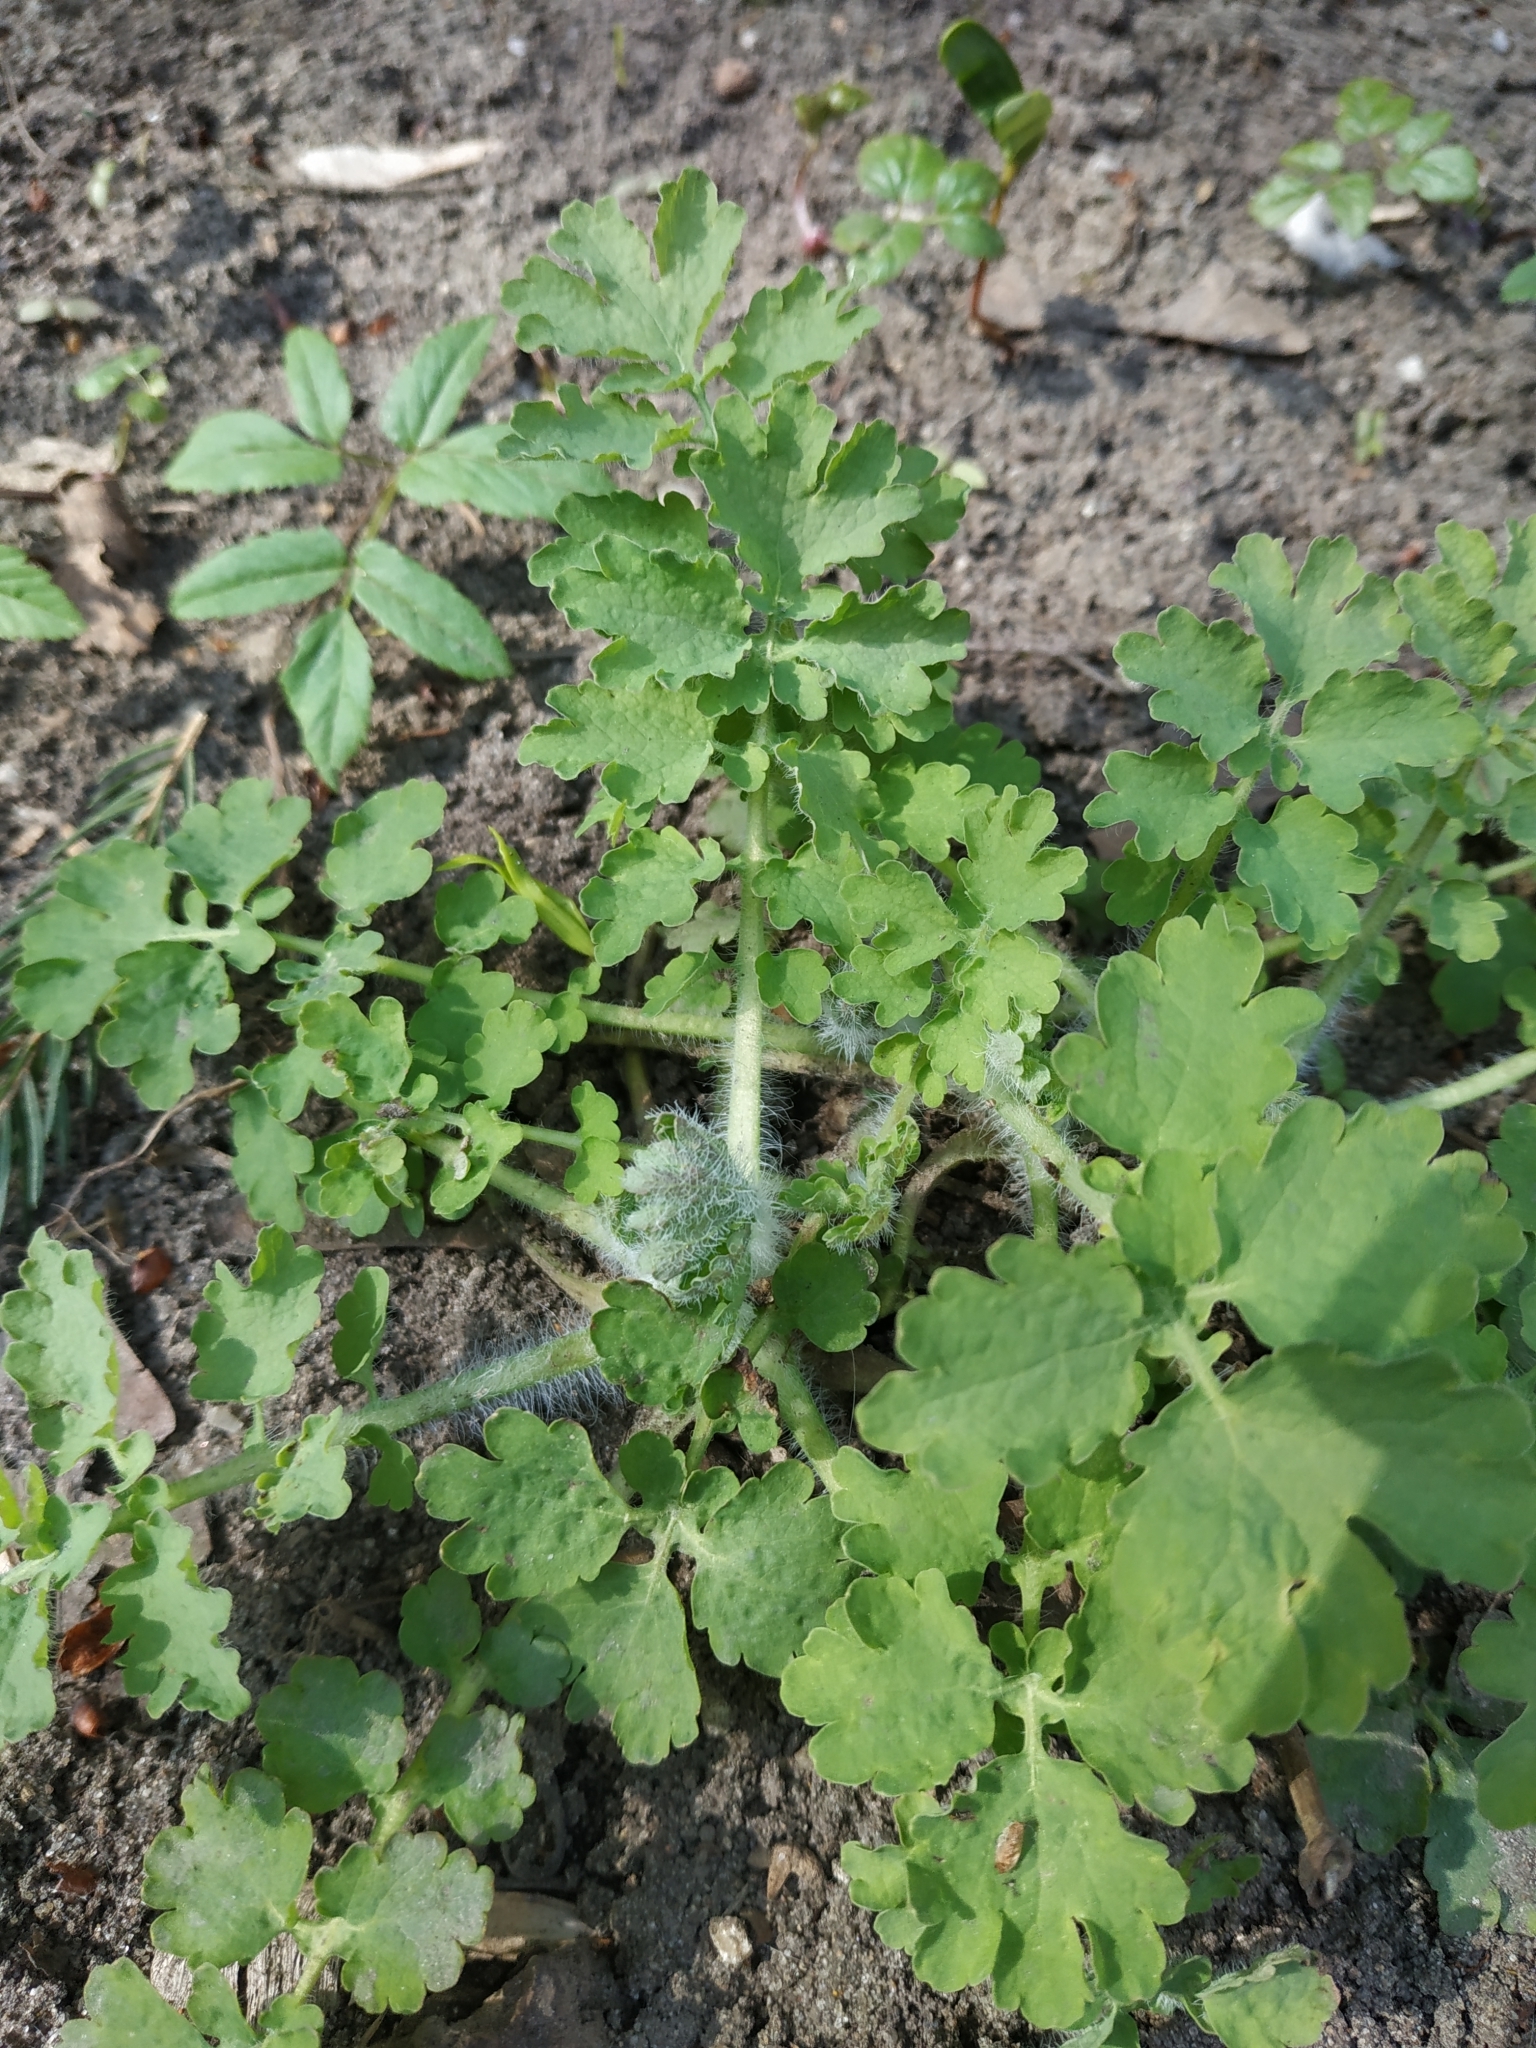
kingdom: Plantae
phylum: Tracheophyta
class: Magnoliopsida
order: Ranunculales
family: Papaveraceae
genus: Chelidonium
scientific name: Chelidonium majus
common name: Greater celandine
